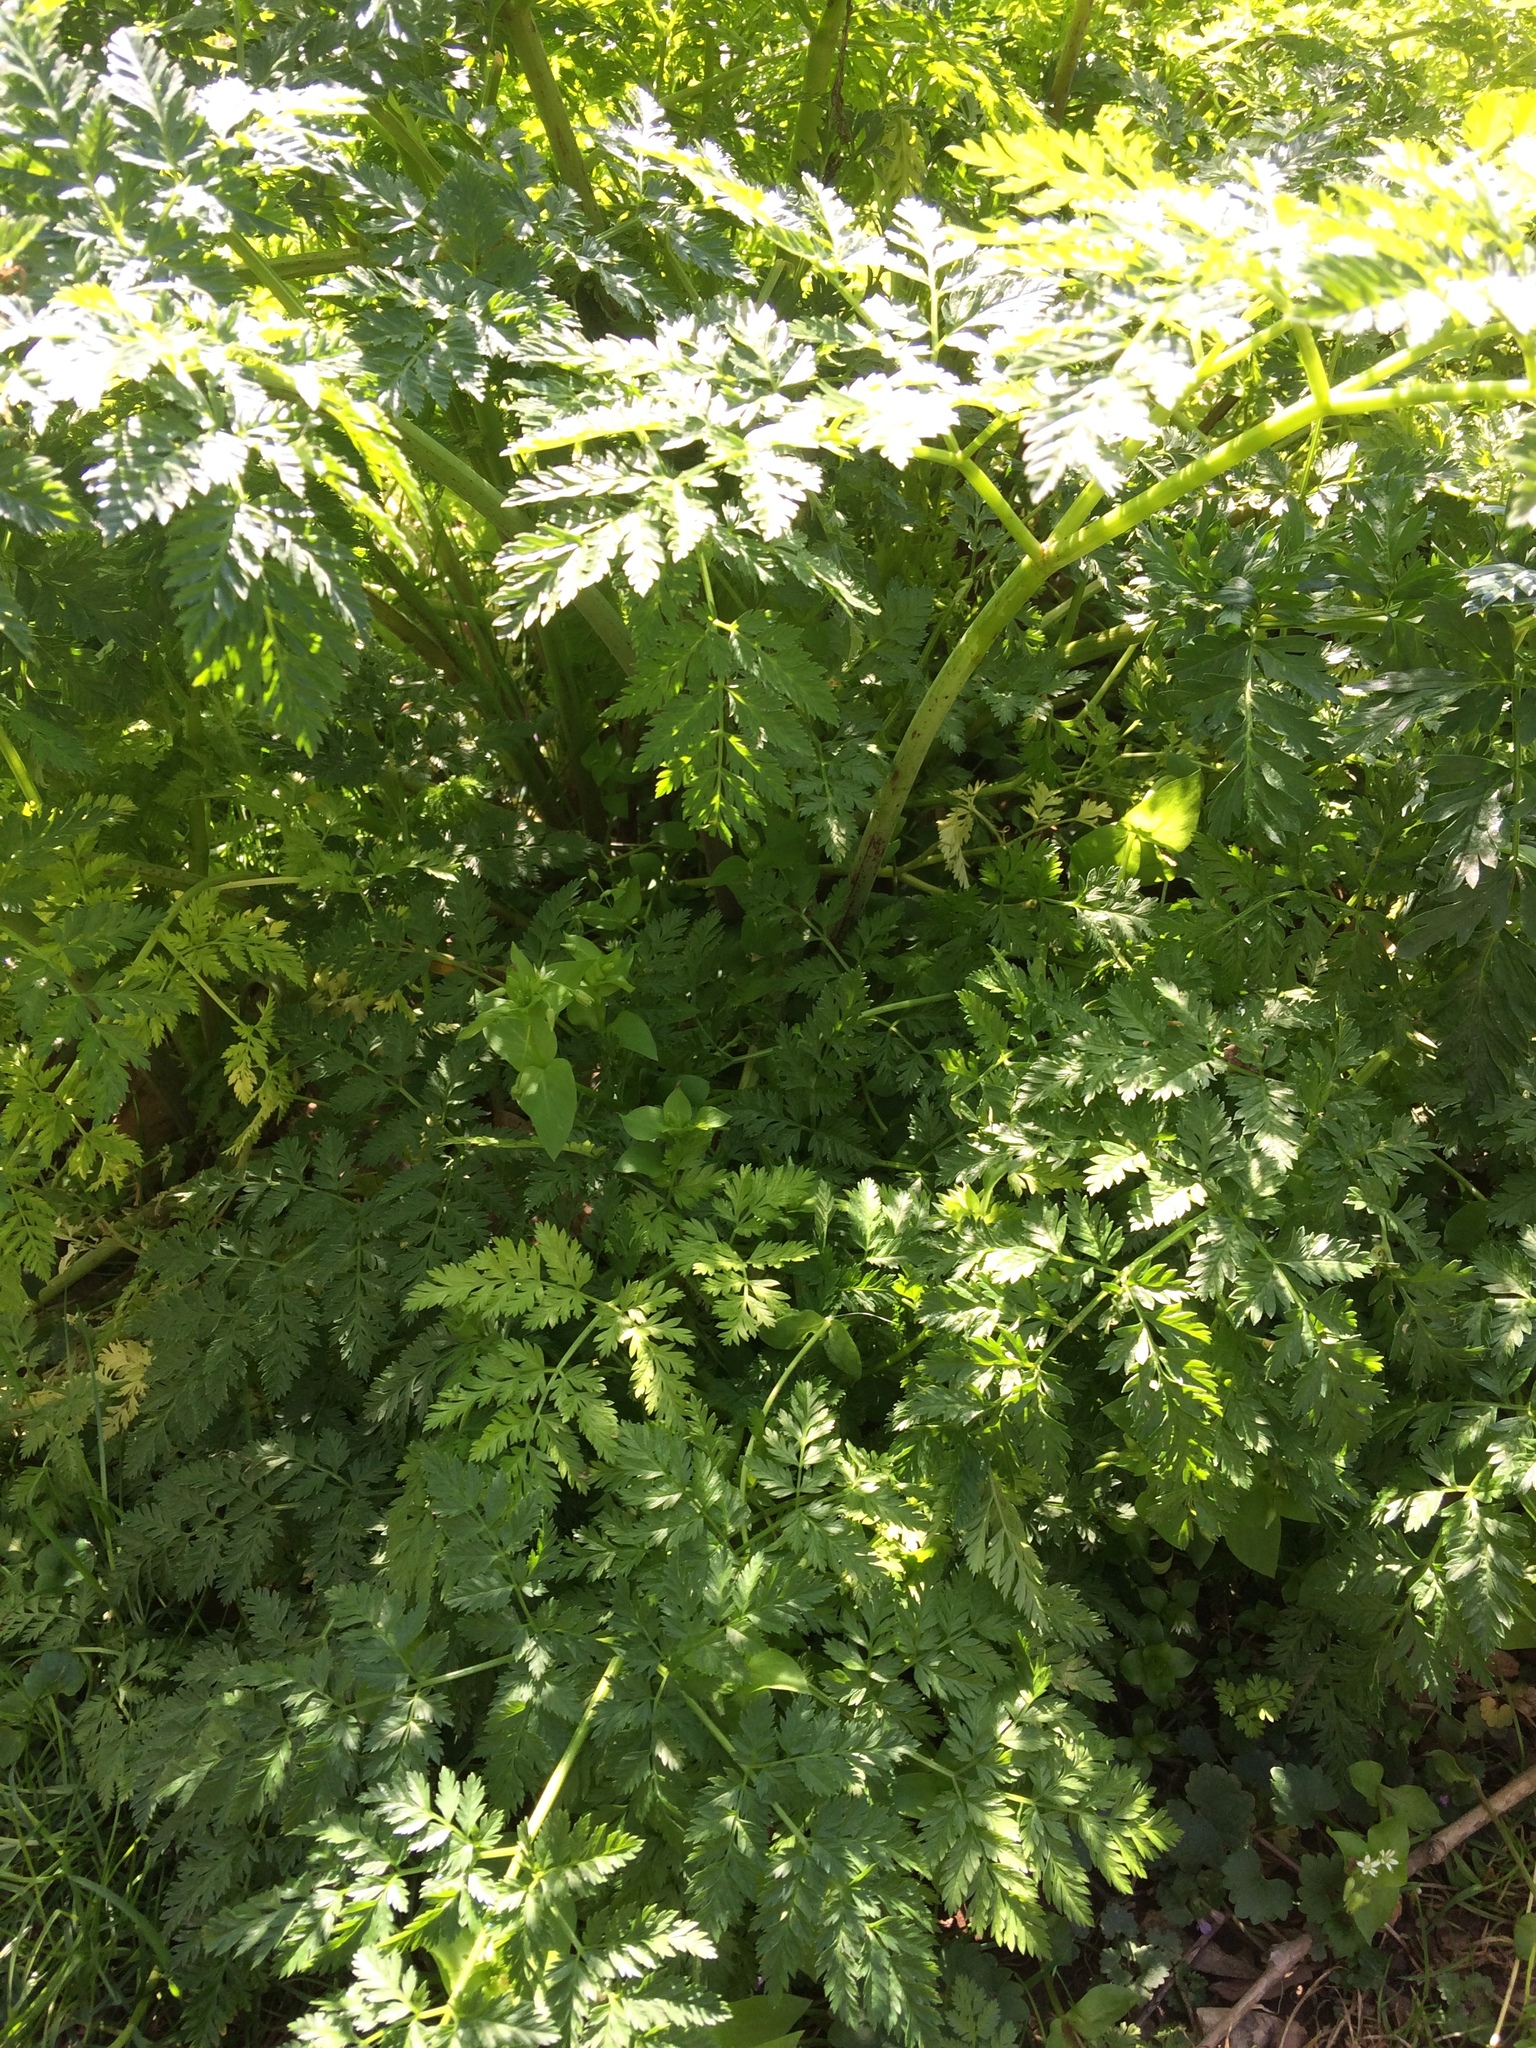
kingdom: Plantae
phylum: Tracheophyta
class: Magnoliopsida
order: Apiales
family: Apiaceae
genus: Conium
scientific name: Conium maculatum
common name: Hemlock
